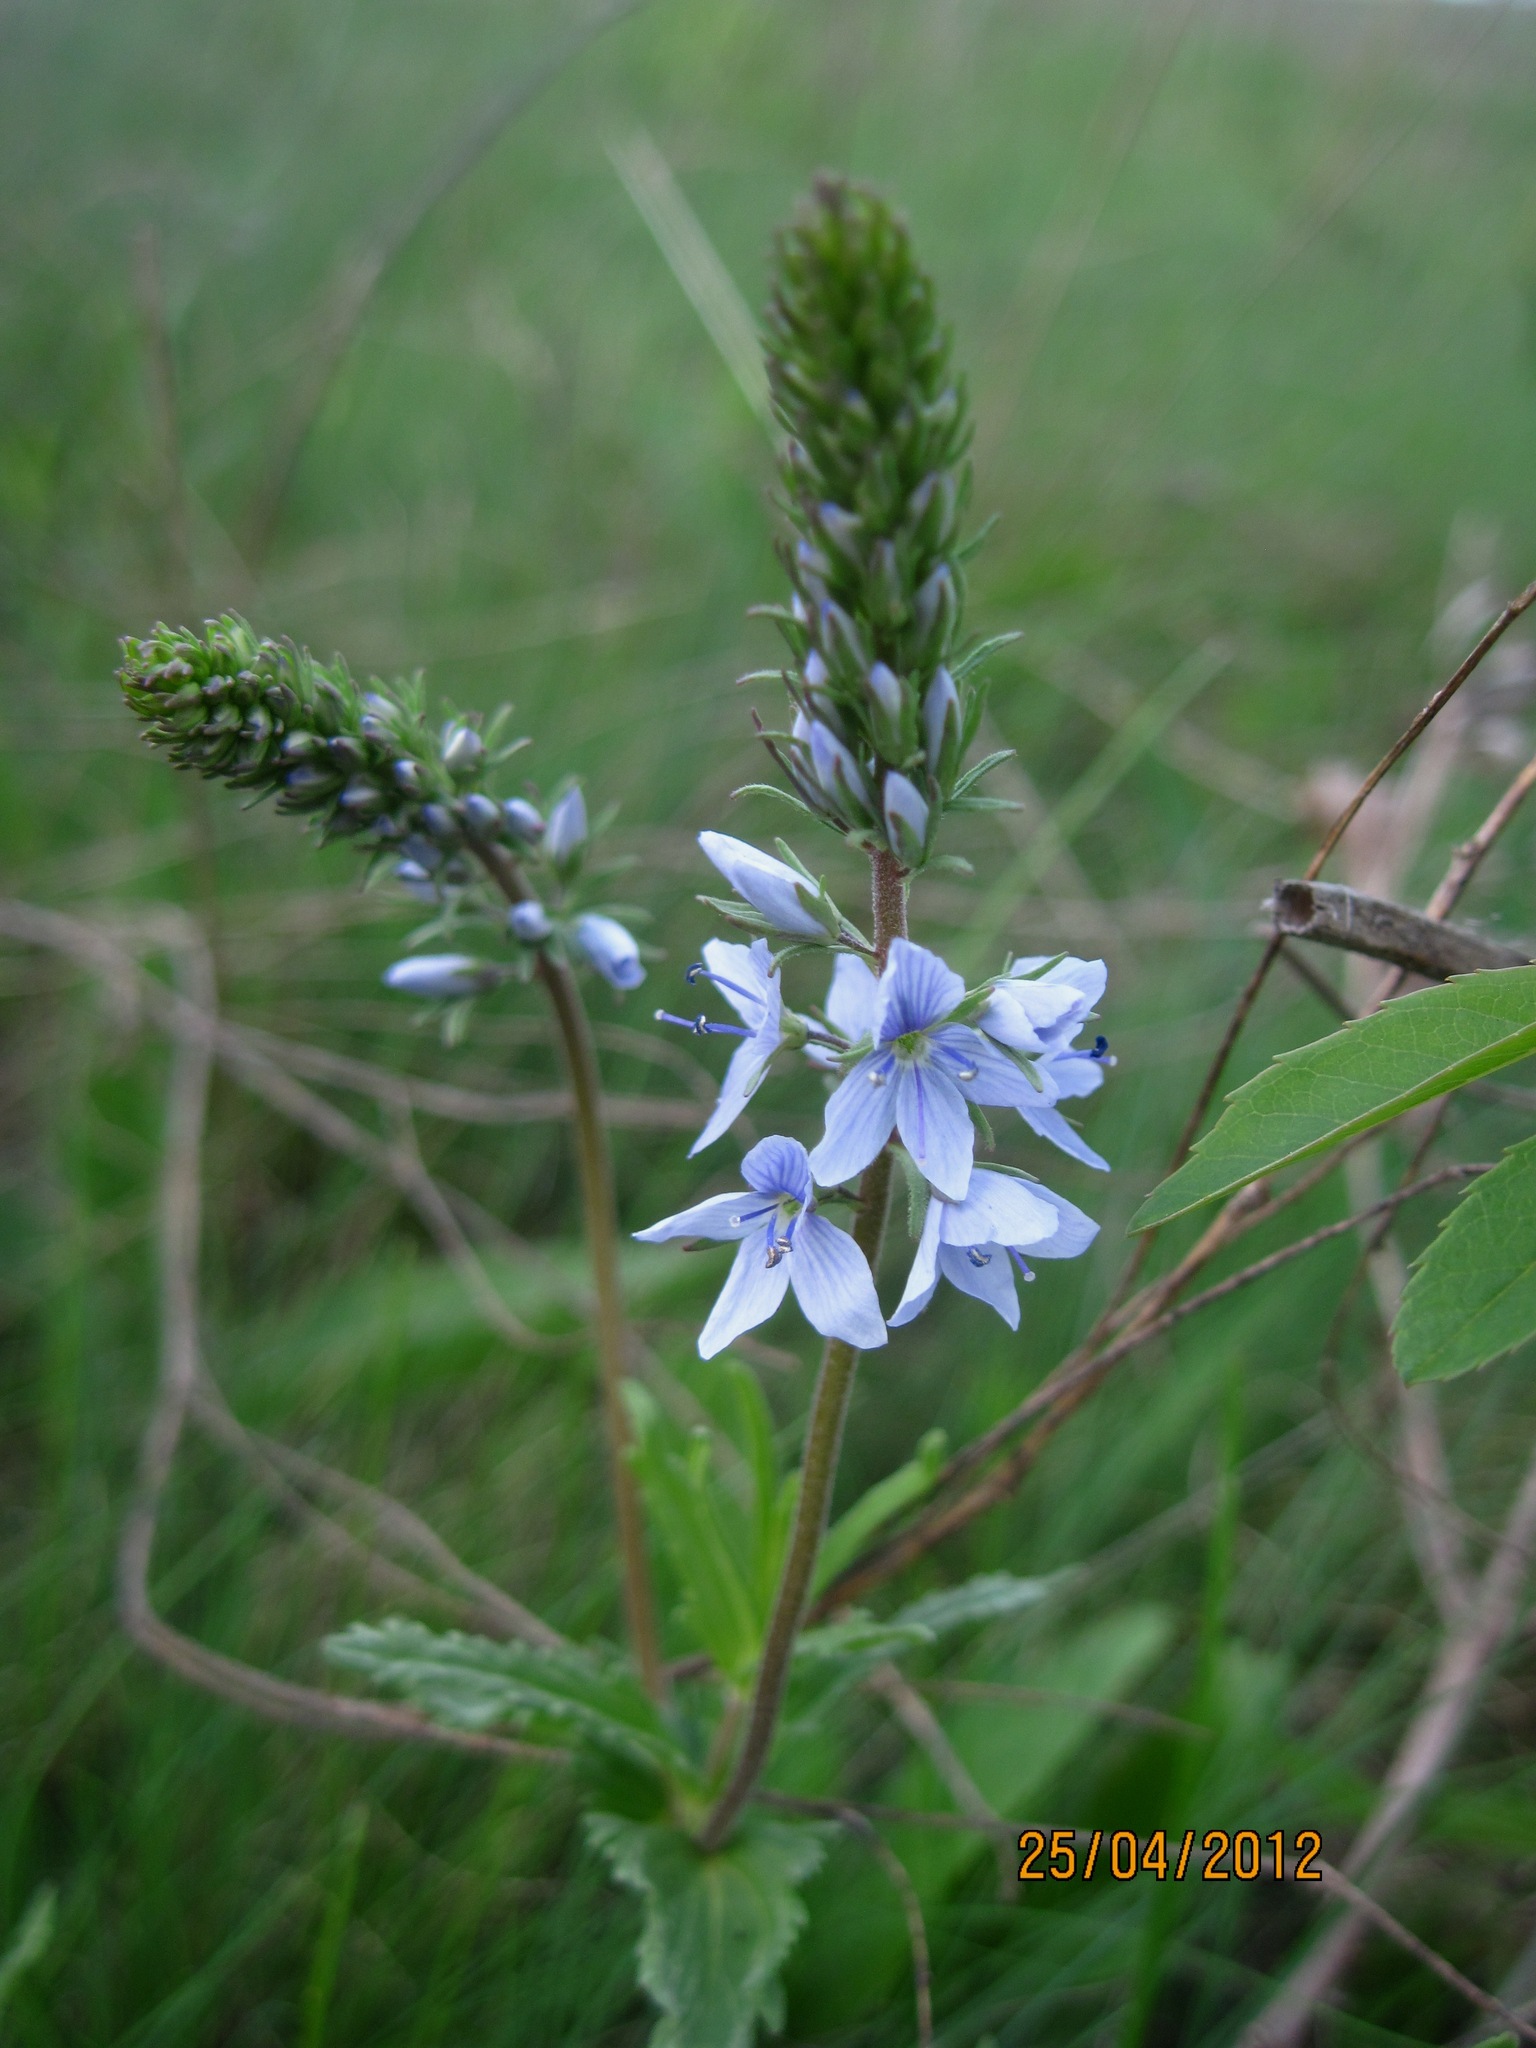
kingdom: Plantae
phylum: Tracheophyta
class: Magnoliopsida
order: Lamiales
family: Plantaginaceae
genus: Veronica
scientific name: Veronica prostrata
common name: Prostrate speedwell
